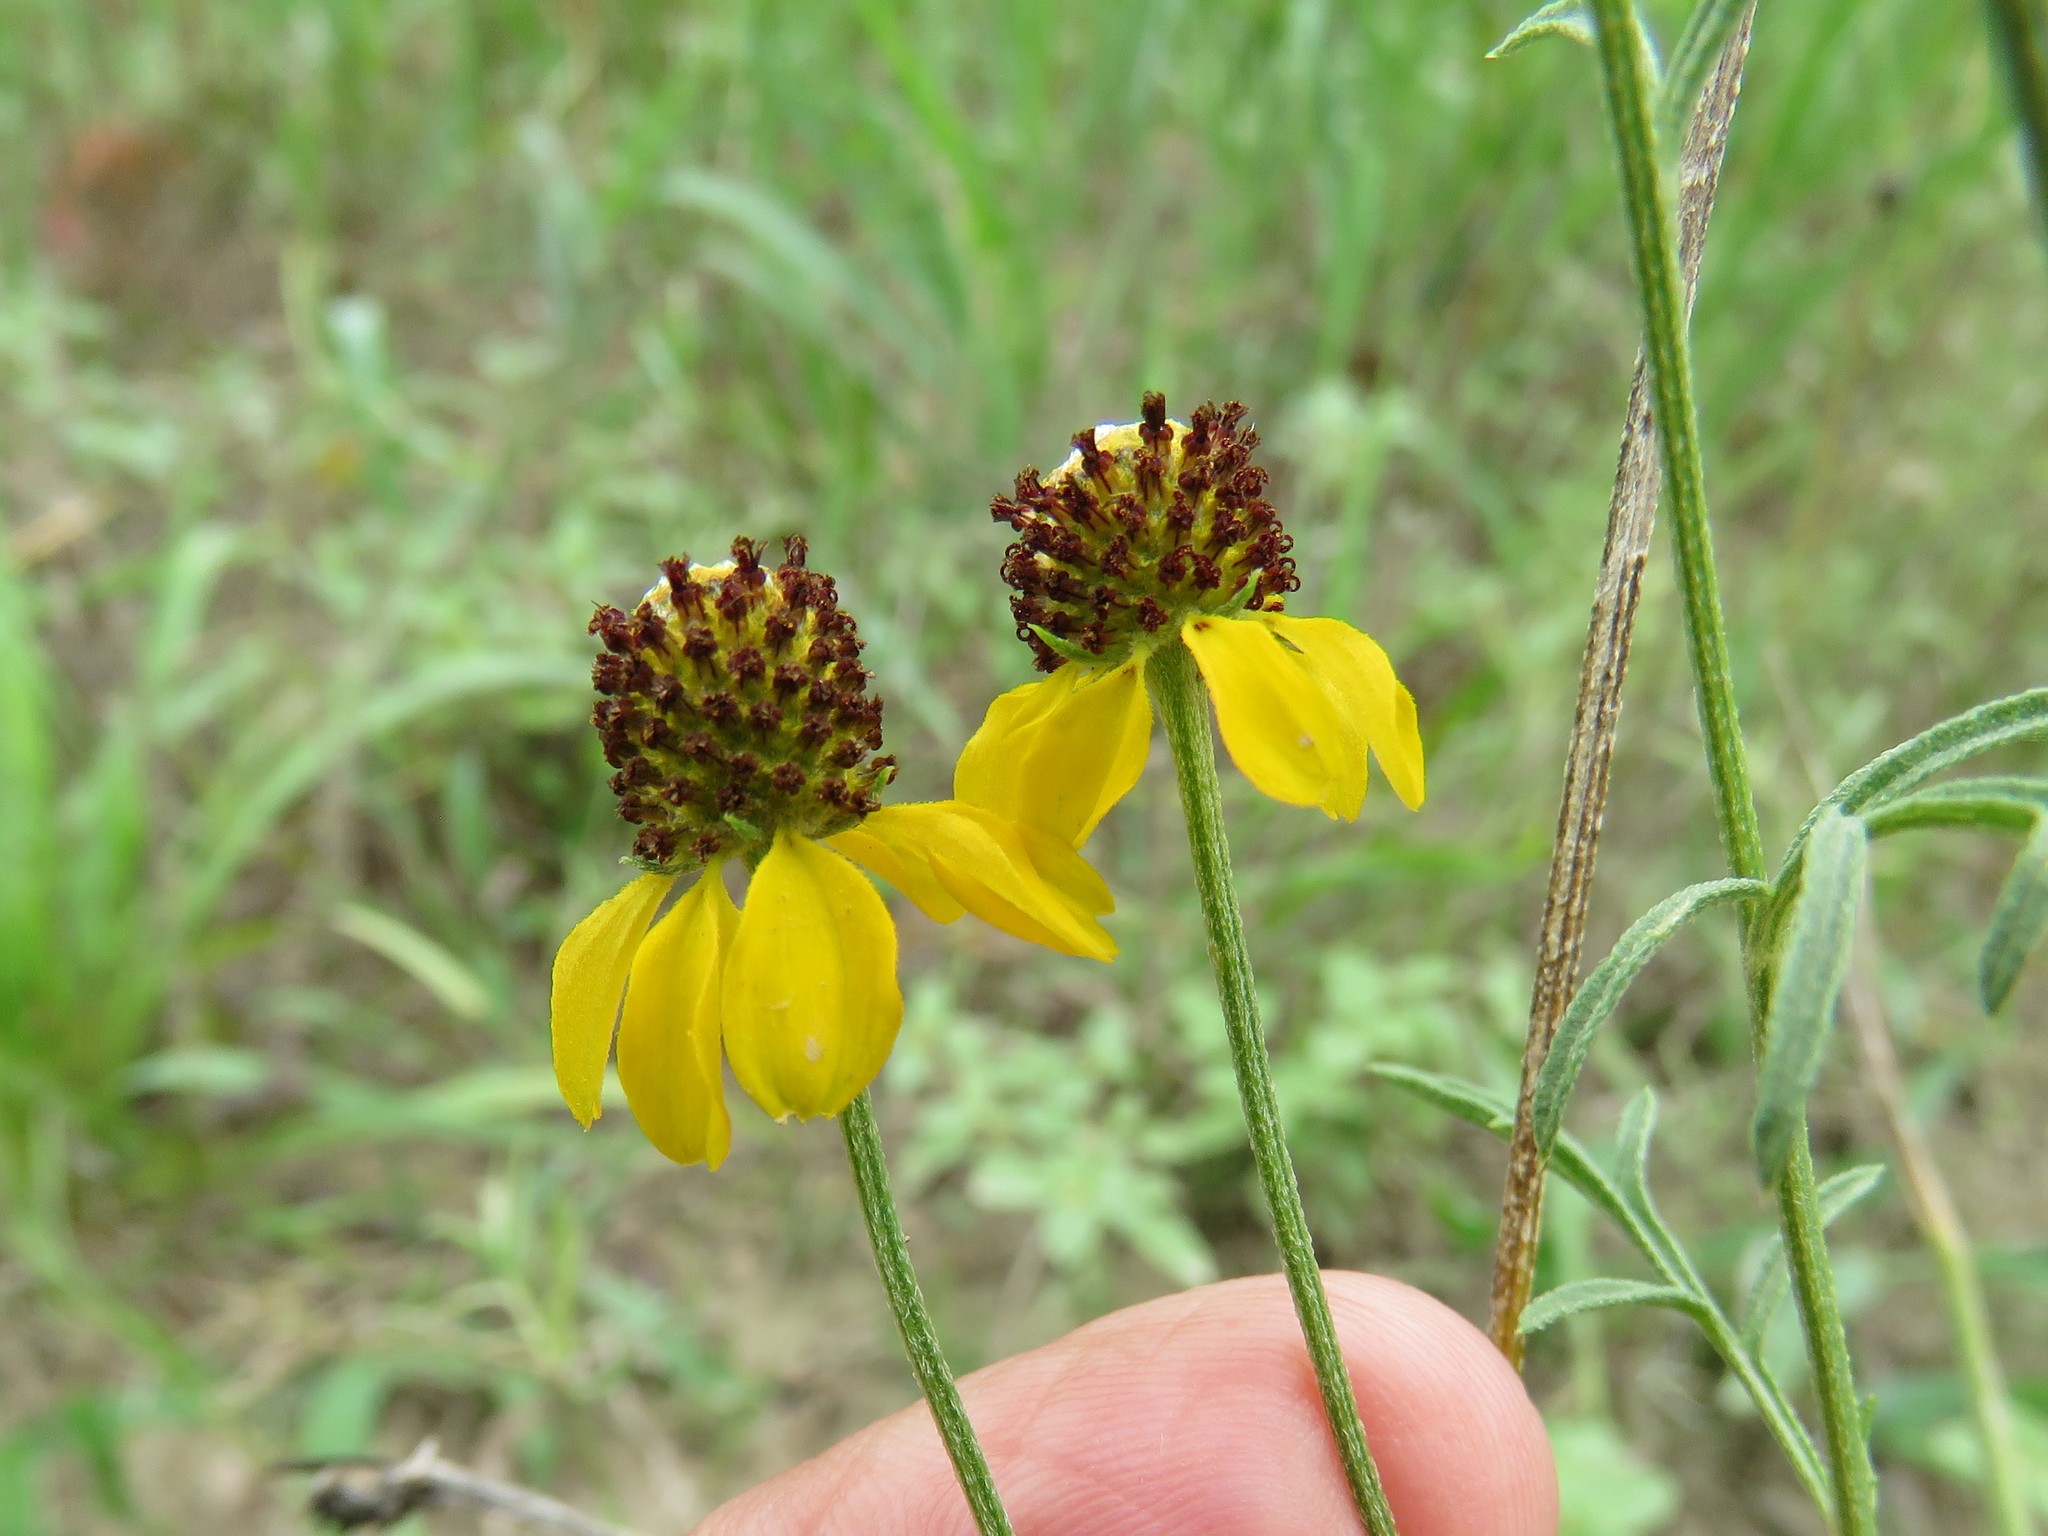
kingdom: Plantae
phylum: Tracheophyta
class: Magnoliopsida
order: Asterales
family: Asteraceae
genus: Ratibida
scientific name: Ratibida columnifera
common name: Prairie coneflower
